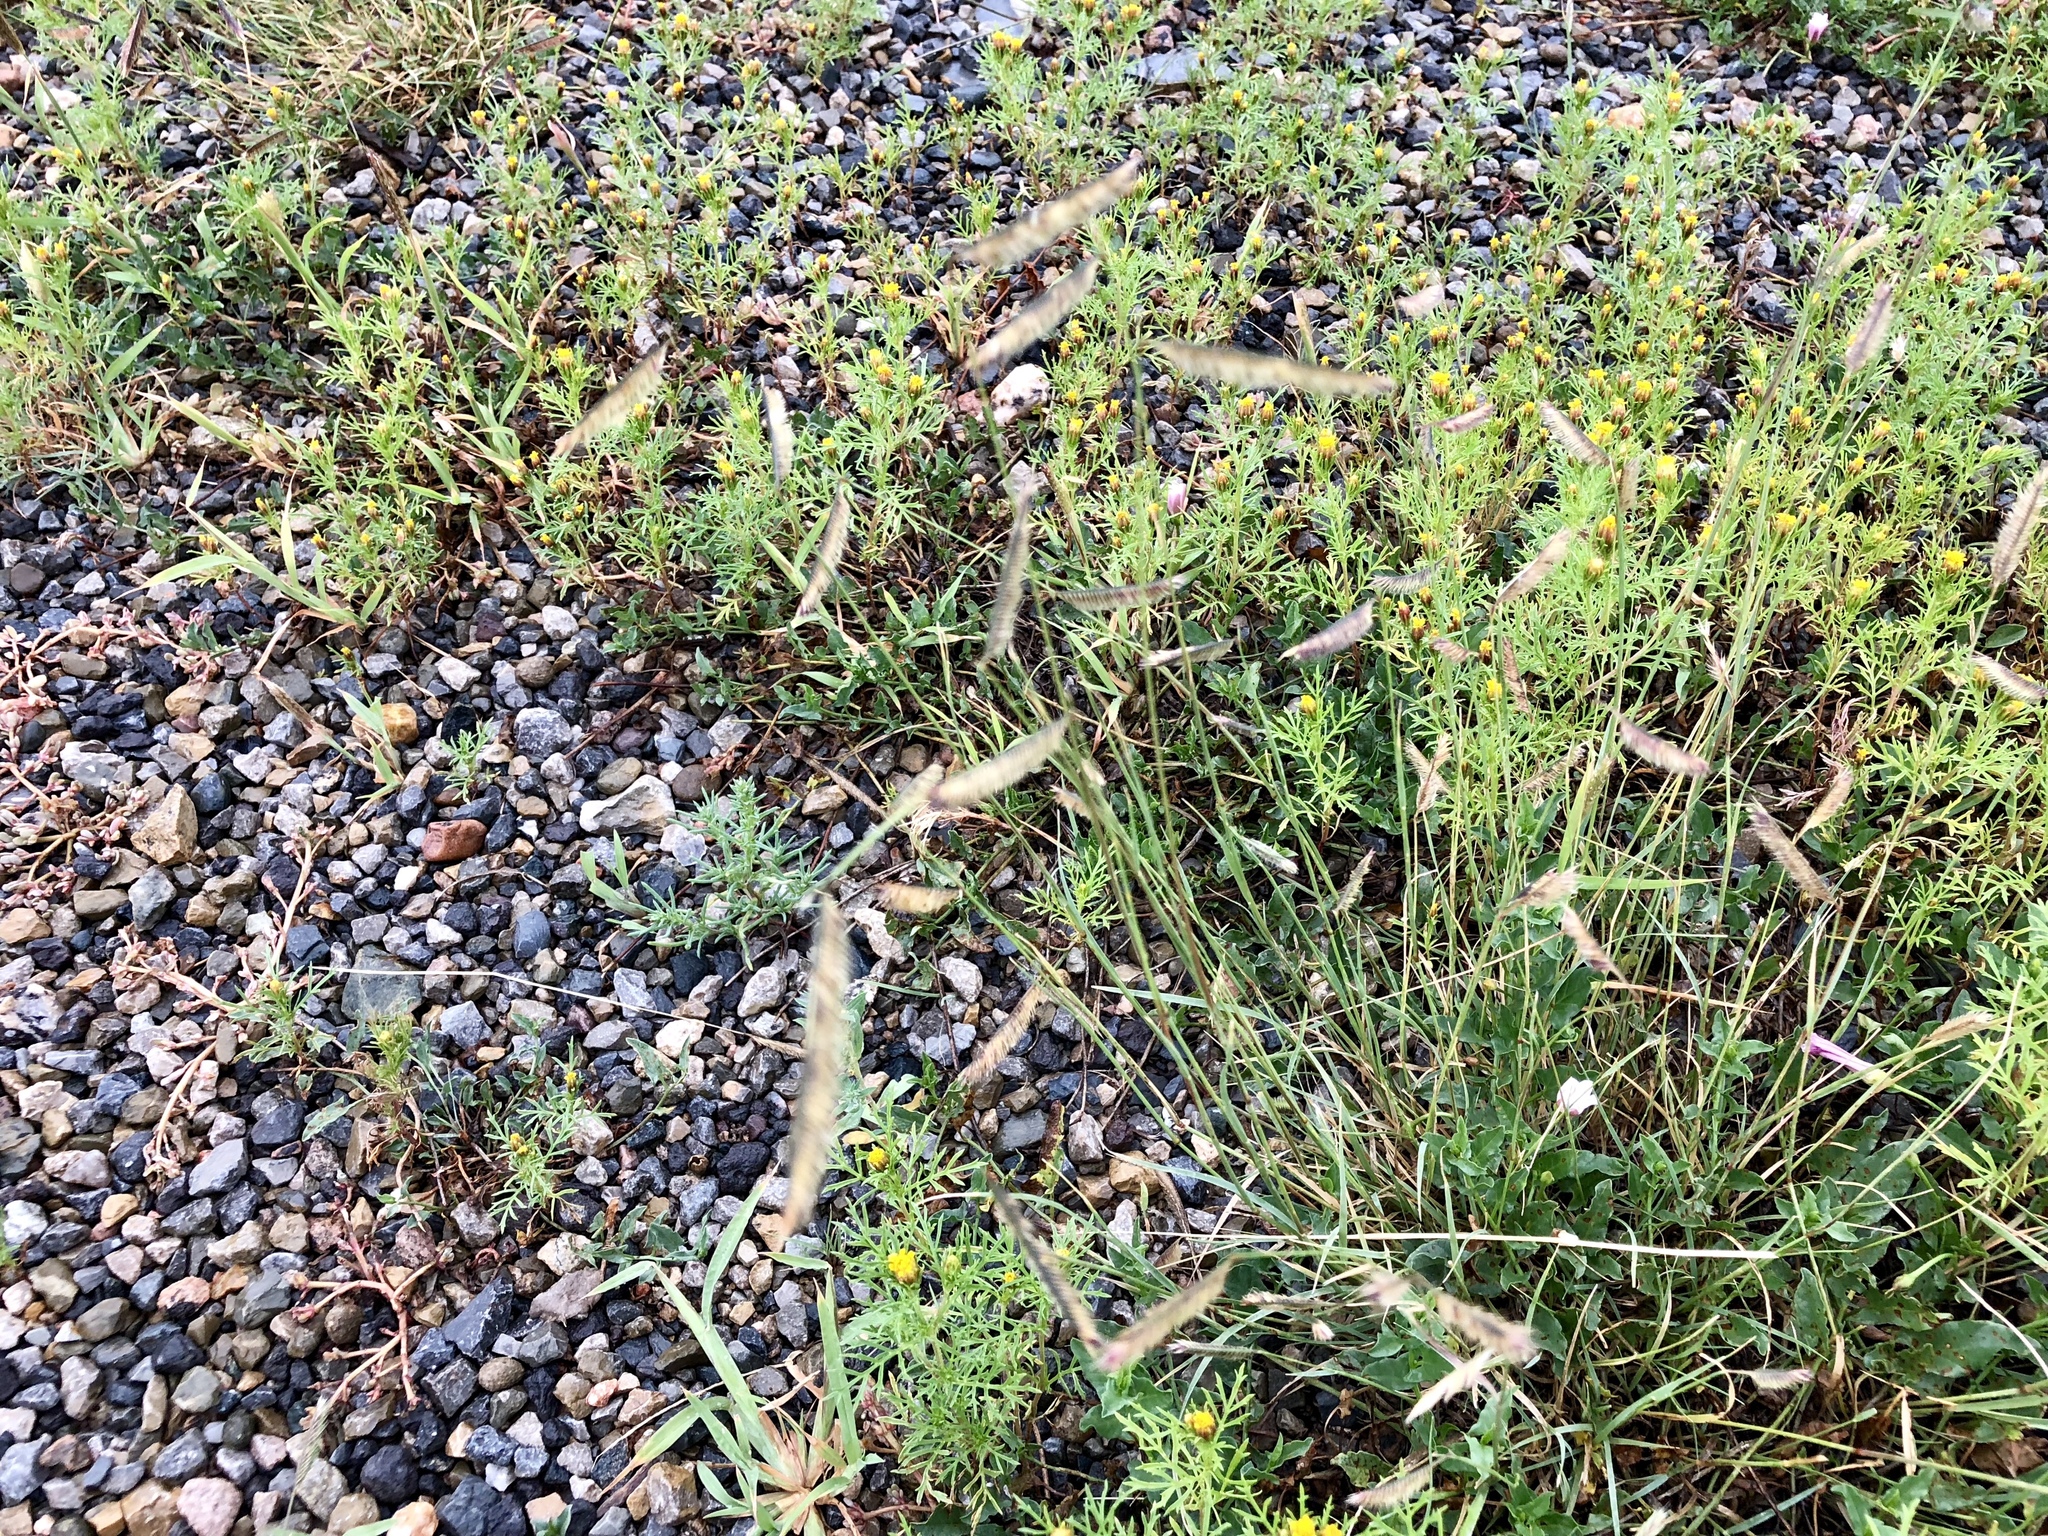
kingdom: Plantae
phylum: Tracheophyta
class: Liliopsida
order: Poales
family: Poaceae
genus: Bouteloua
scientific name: Bouteloua gracilis
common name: Blue grama
